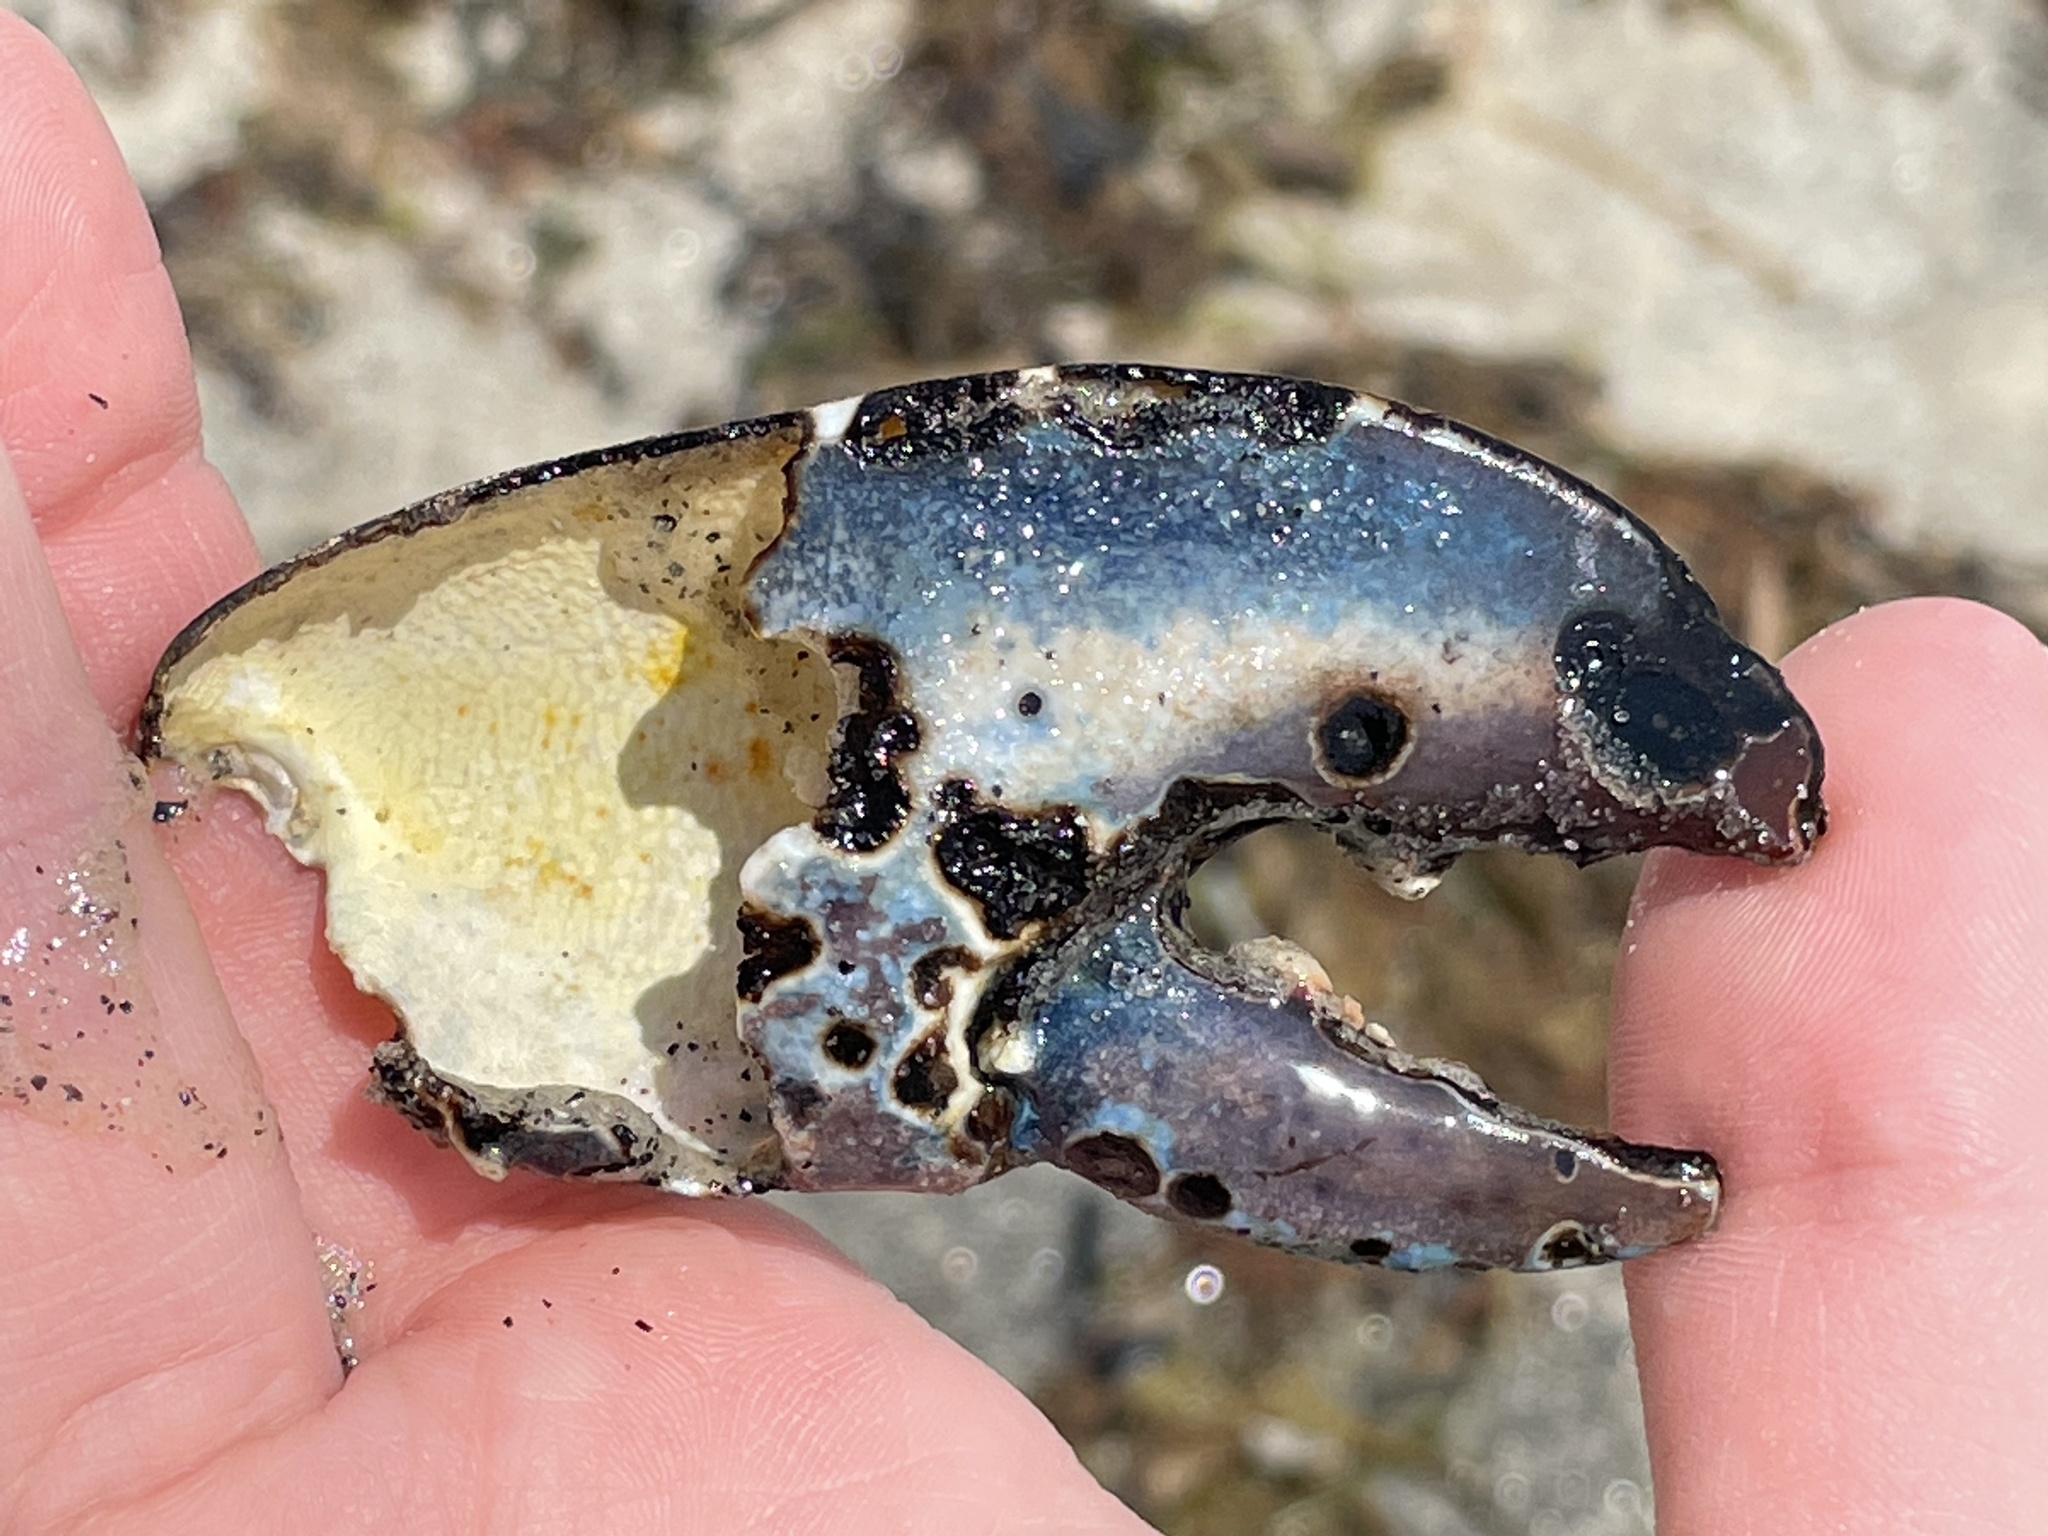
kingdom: Animalia
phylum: Arthropoda
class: Malacostraca
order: Decapoda
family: Nephropidae
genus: Homarus
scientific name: Homarus americanus
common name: American lobster
